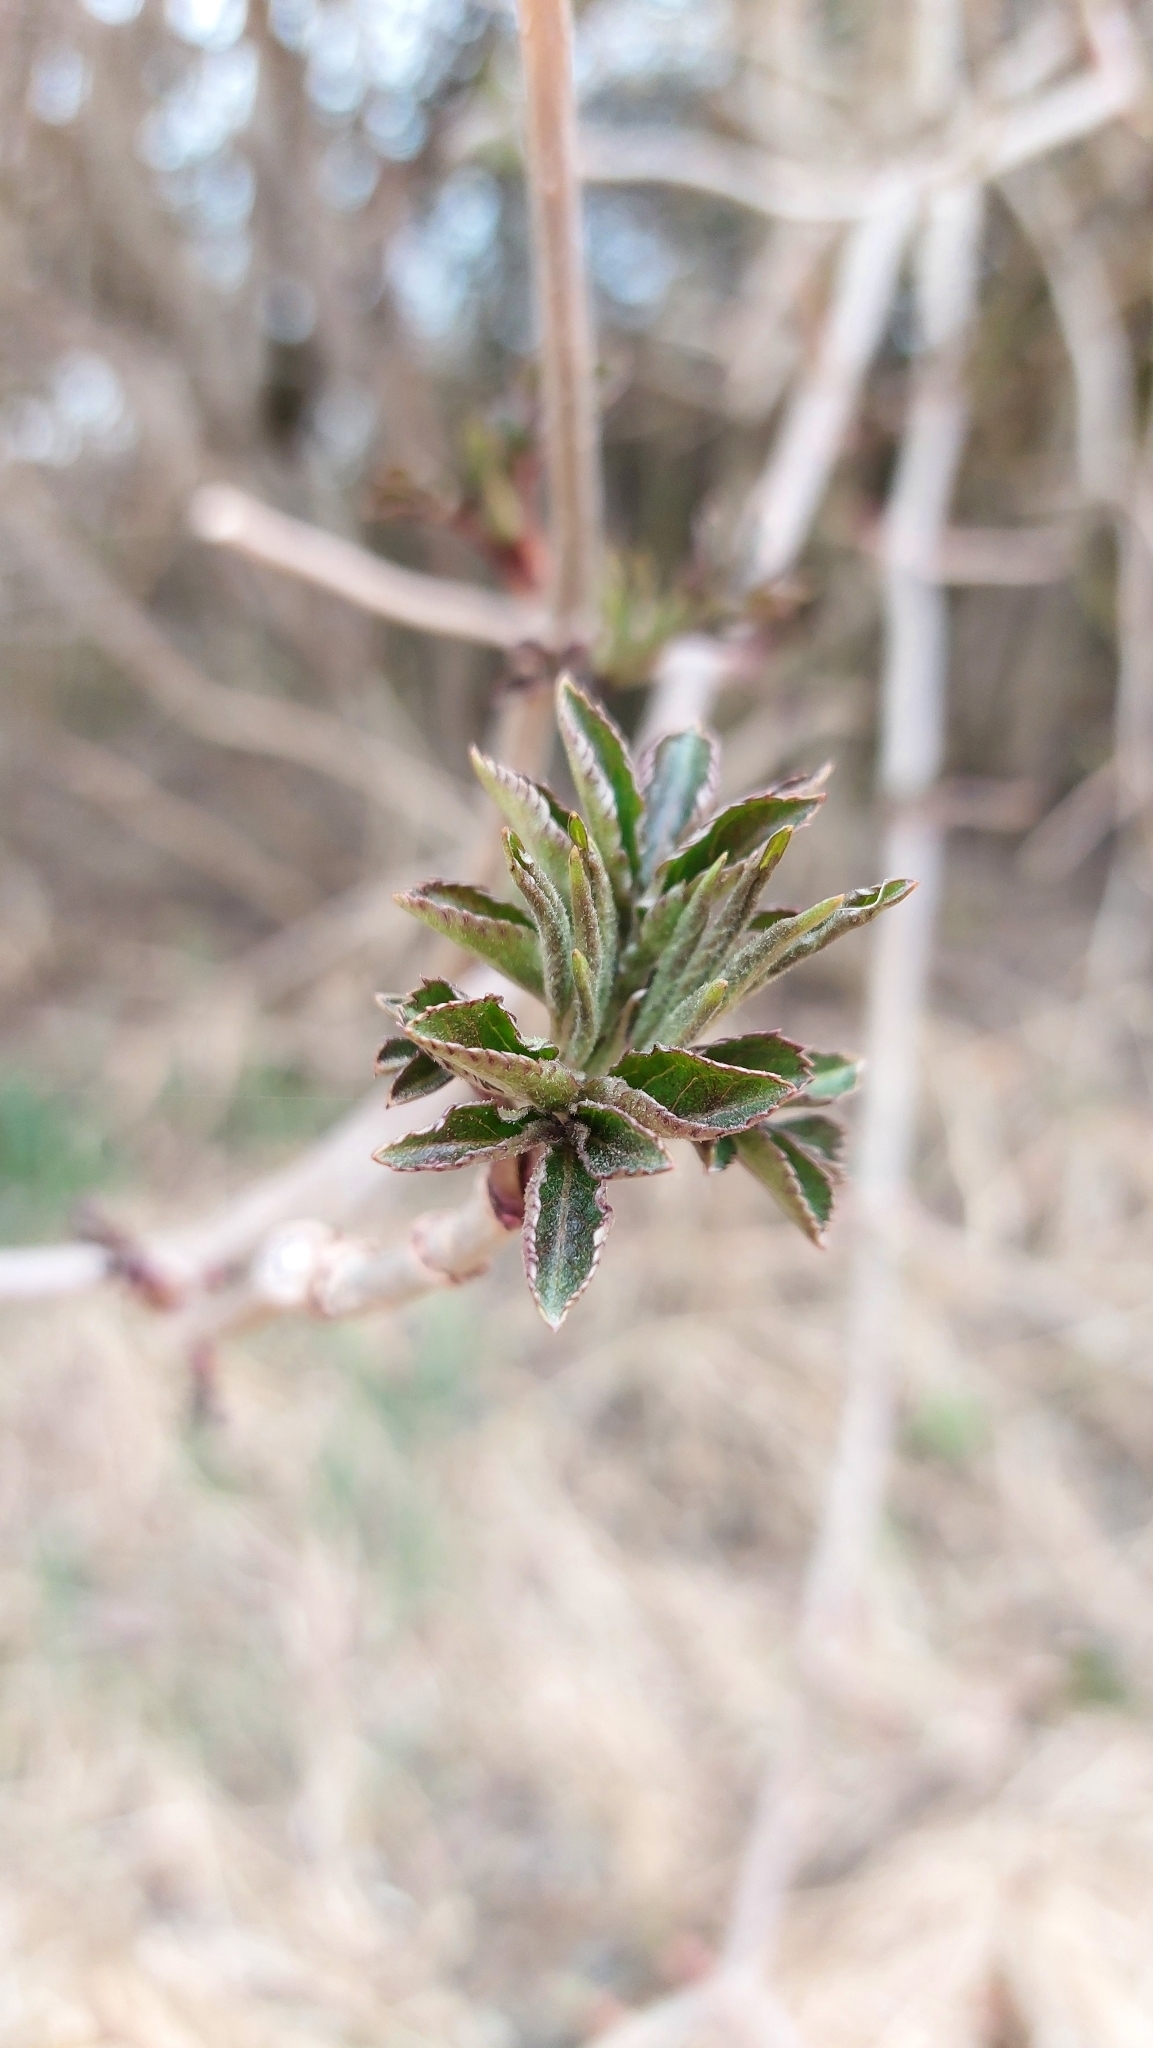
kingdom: Plantae
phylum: Tracheophyta
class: Magnoliopsida
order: Dipsacales
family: Viburnaceae
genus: Sambucus
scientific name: Sambucus nigra
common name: Elder
